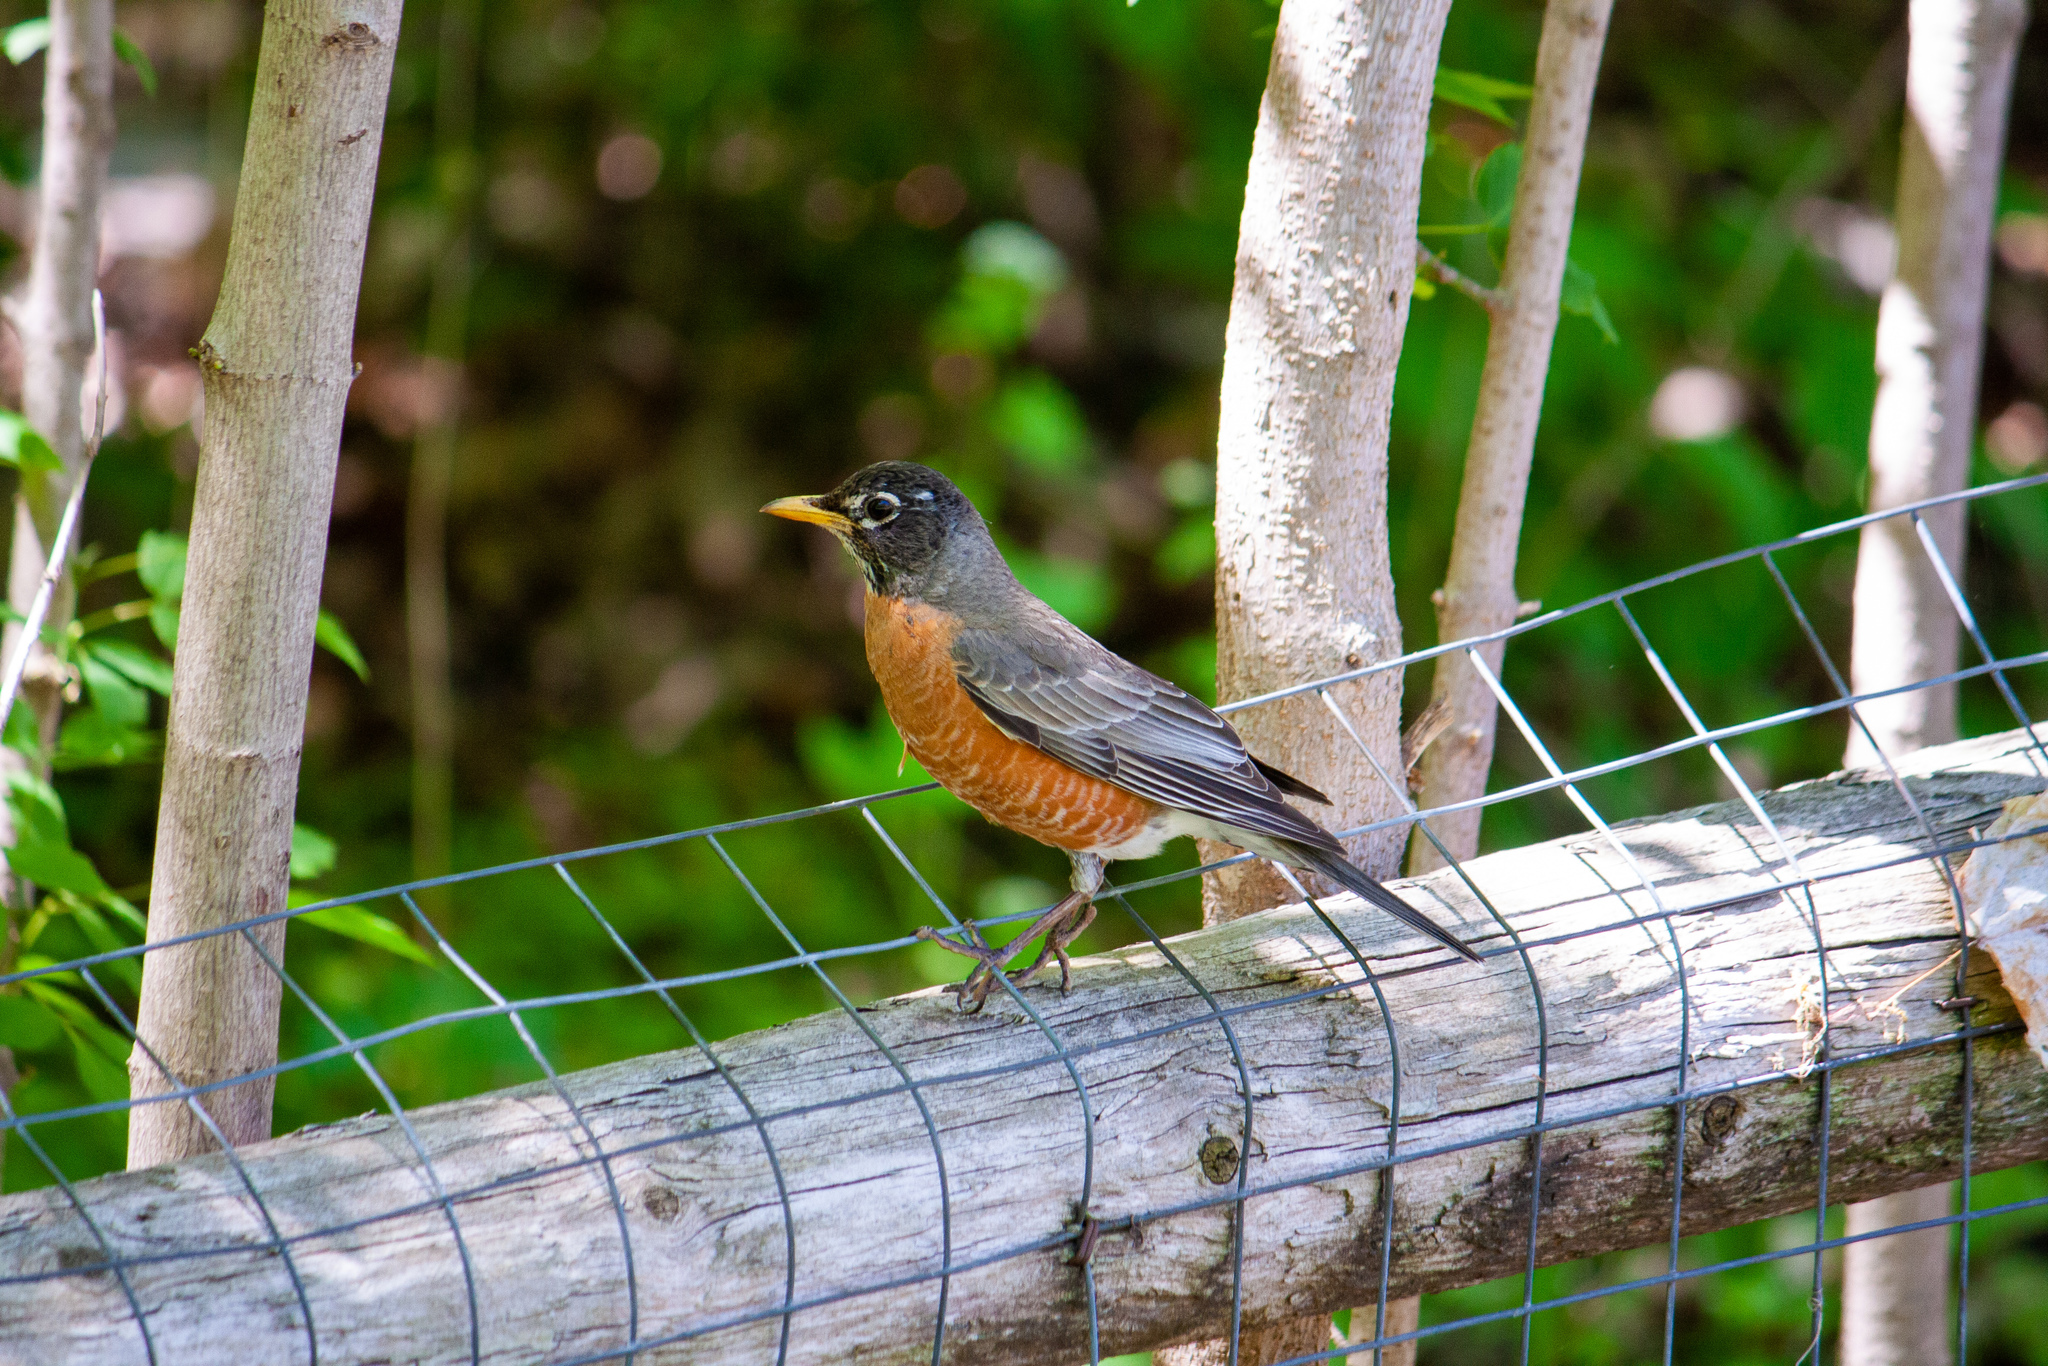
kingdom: Animalia
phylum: Chordata
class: Aves
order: Passeriformes
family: Turdidae
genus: Turdus
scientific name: Turdus migratorius
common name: American robin
